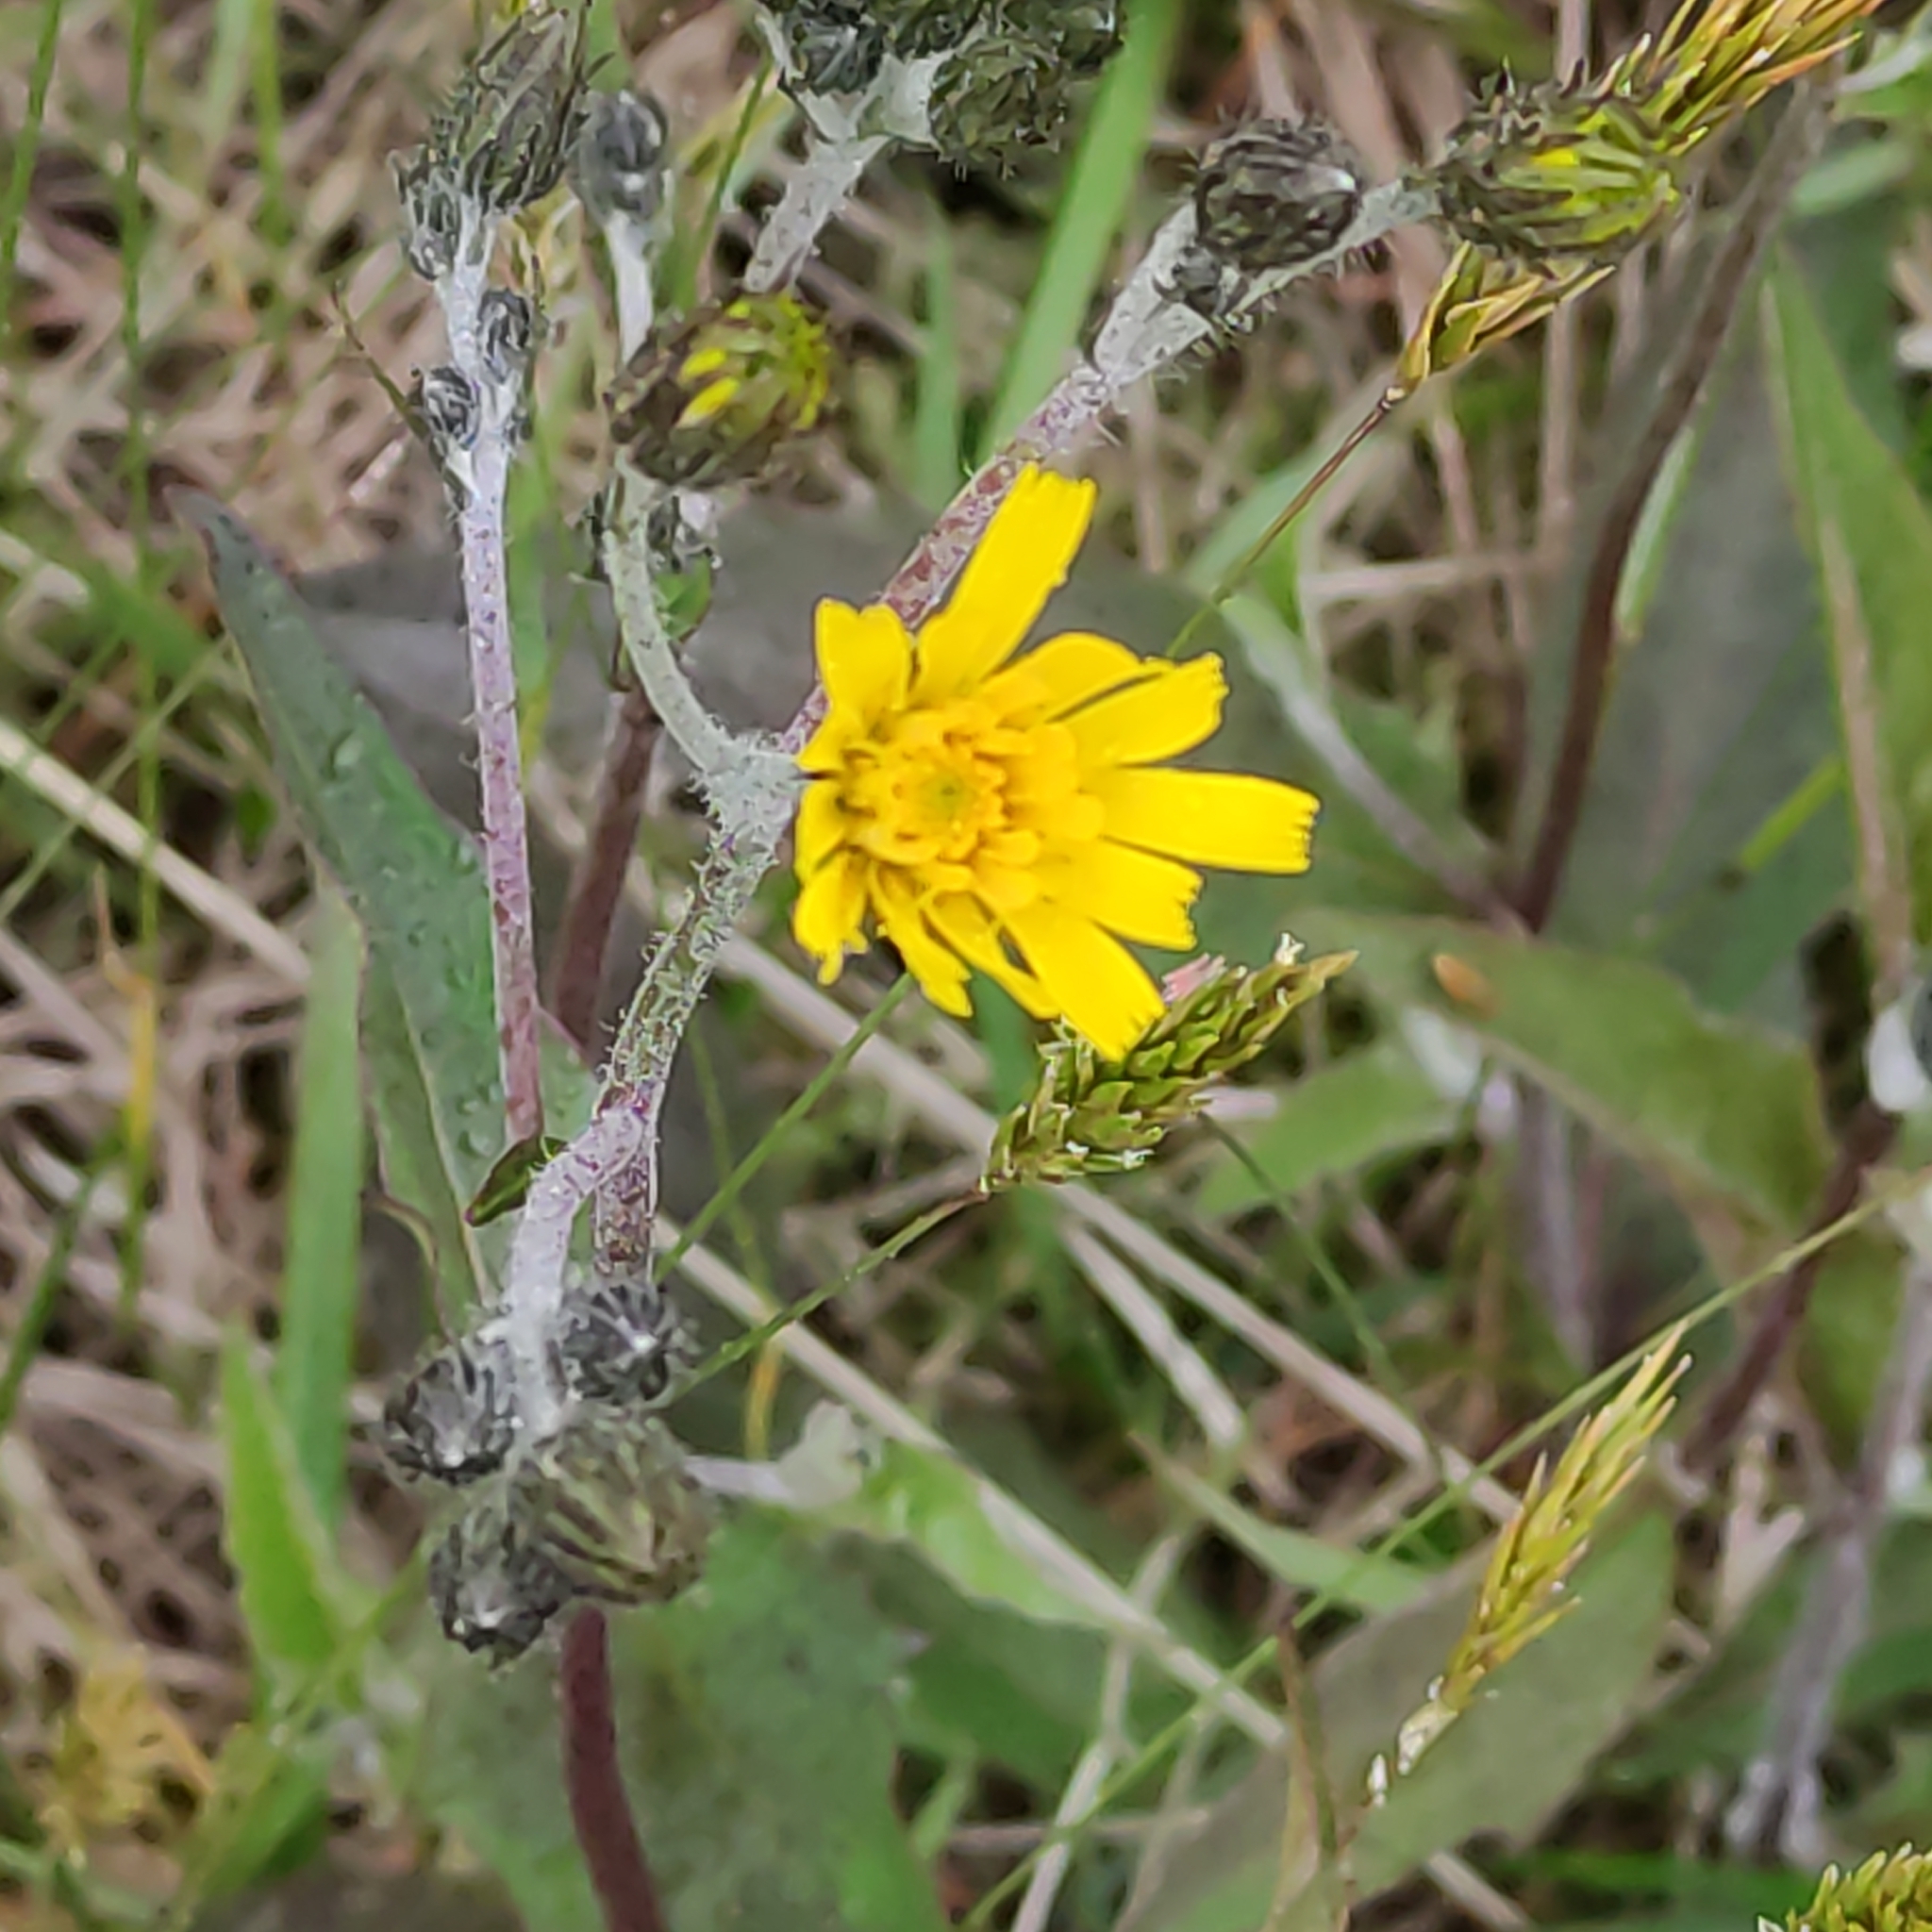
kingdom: Plantae
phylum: Tracheophyta
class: Magnoliopsida
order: Asterales
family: Asteraceae
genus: Hieracium
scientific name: Hieracium lepidulum
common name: Irregular-toothed hawkweed
